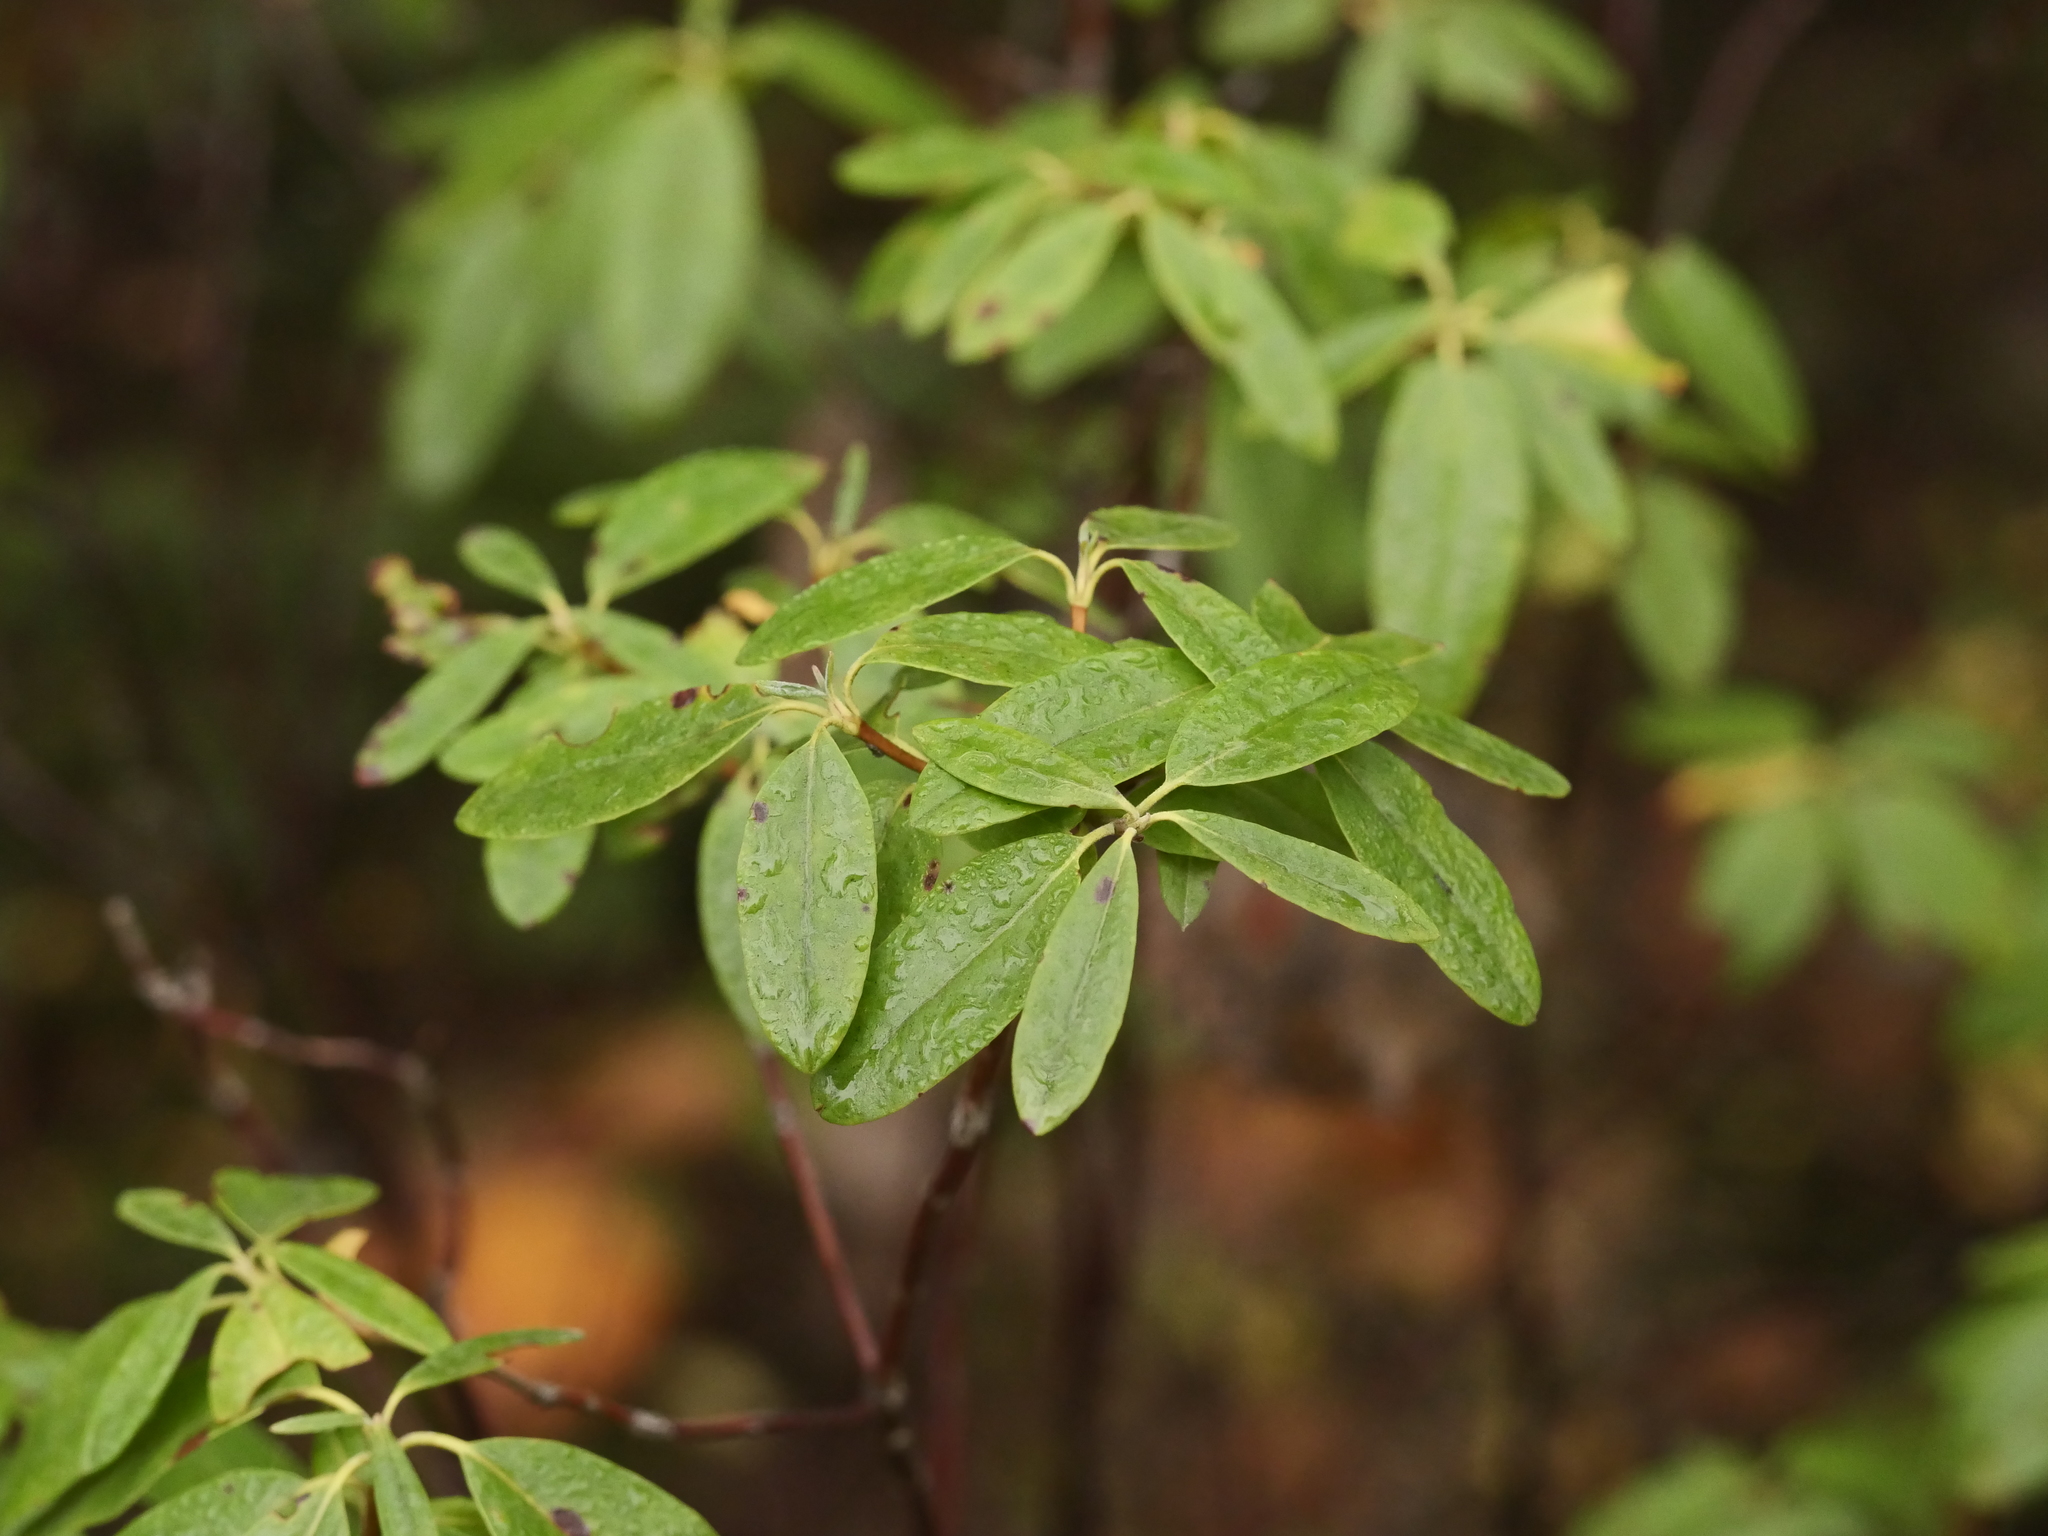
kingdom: Plantae
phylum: Tracheophyta
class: Magnoliopsida
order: Ericales
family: Ericaceae
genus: Kalmia
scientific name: Kalmia angustifolia
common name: Sheep-laurel
